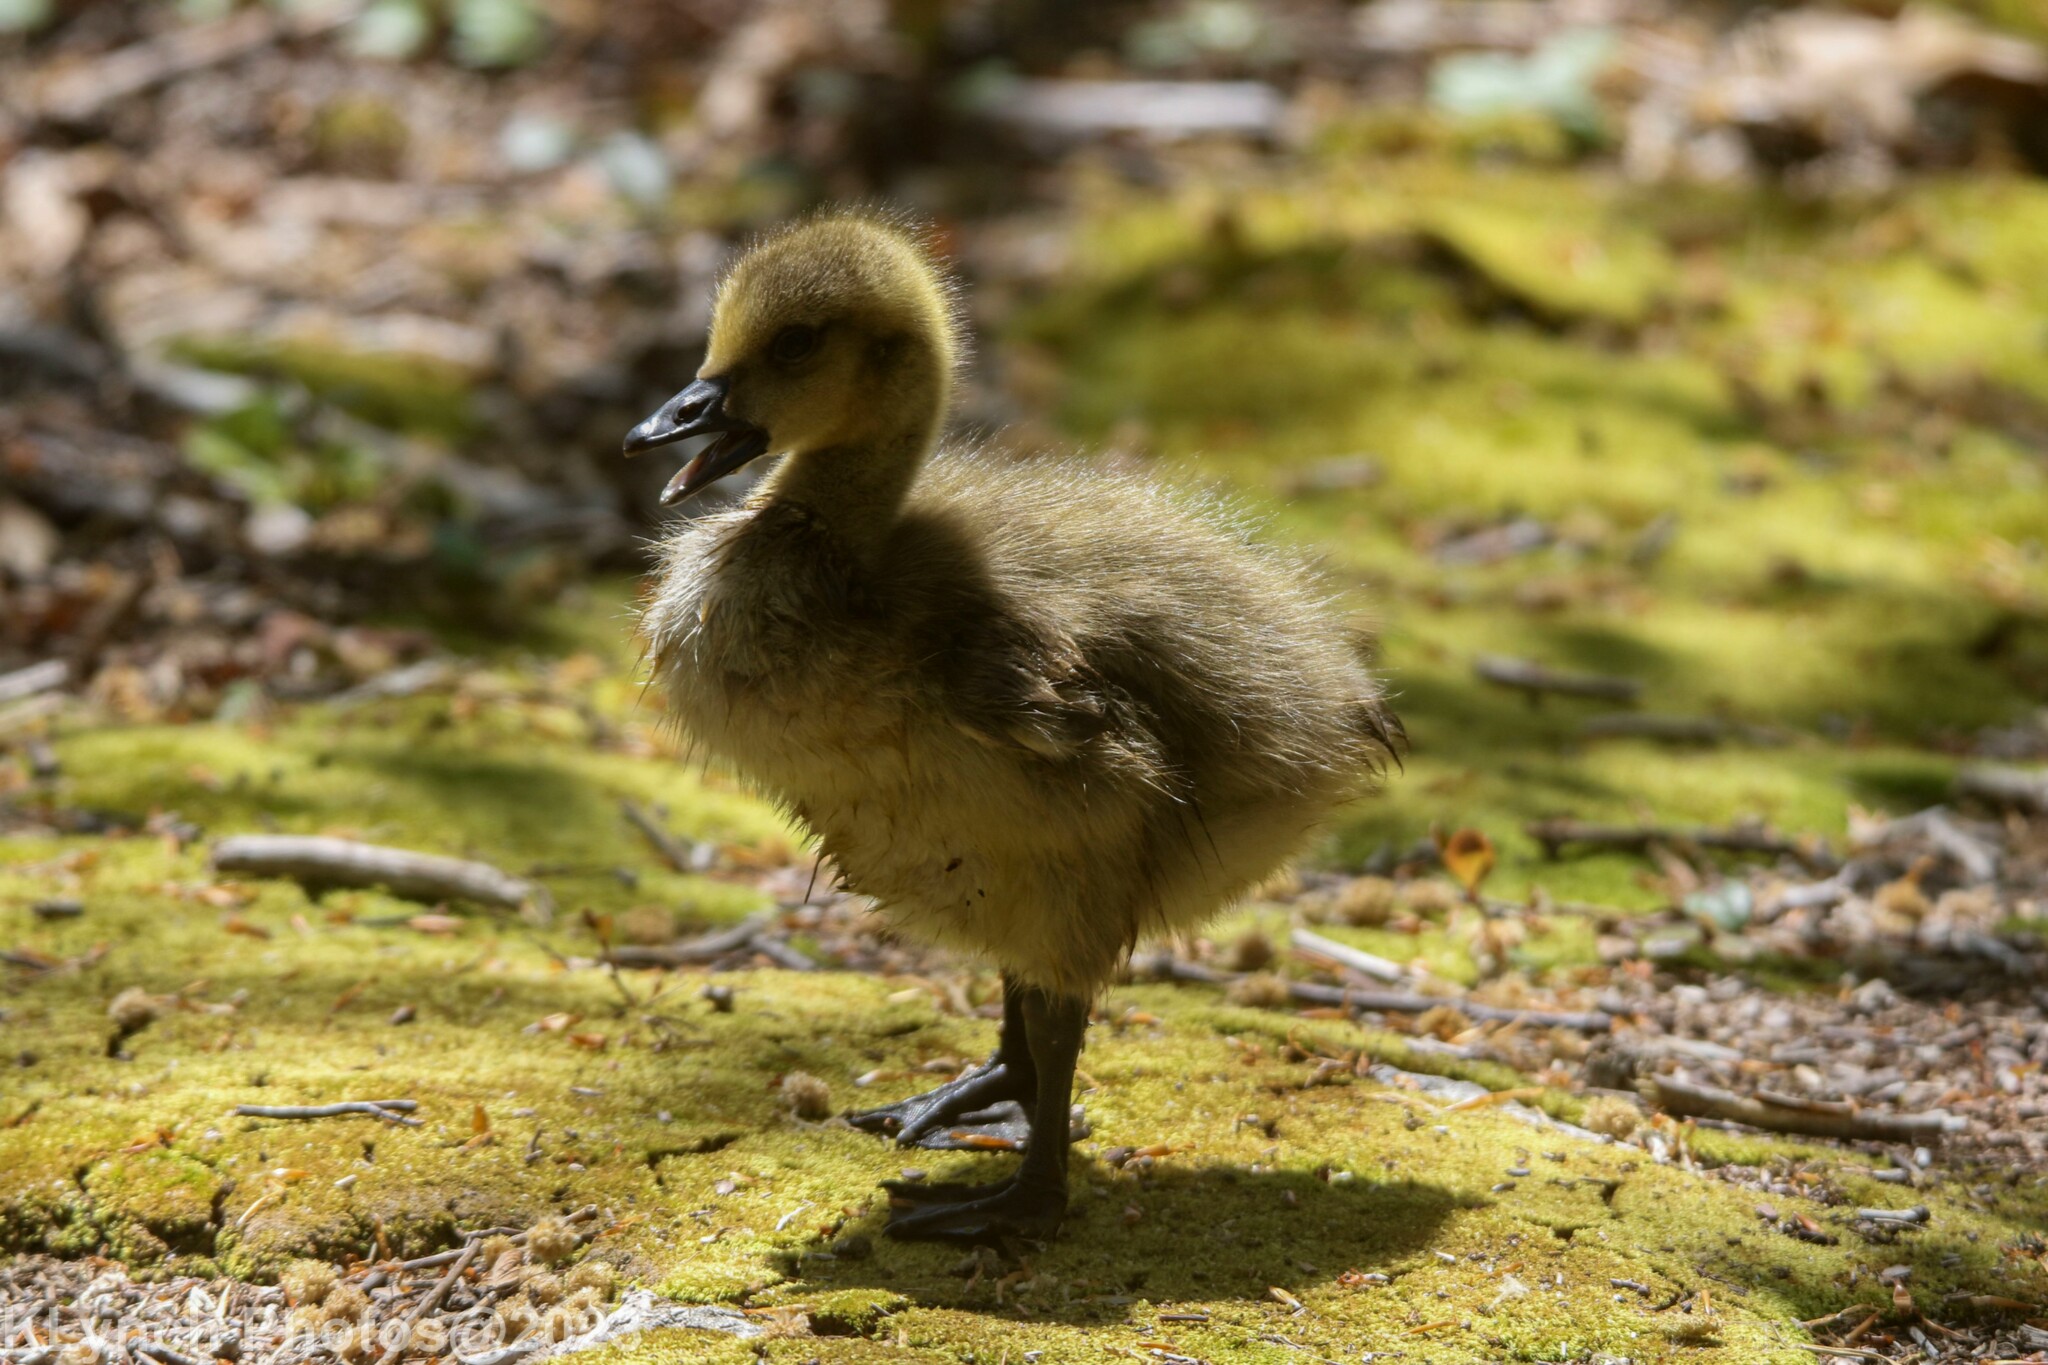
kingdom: Animalia
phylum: Chordata
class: Aves
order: Anseriformes
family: Anatidae
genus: Branta
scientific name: Branta canadensis
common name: Canada goose
